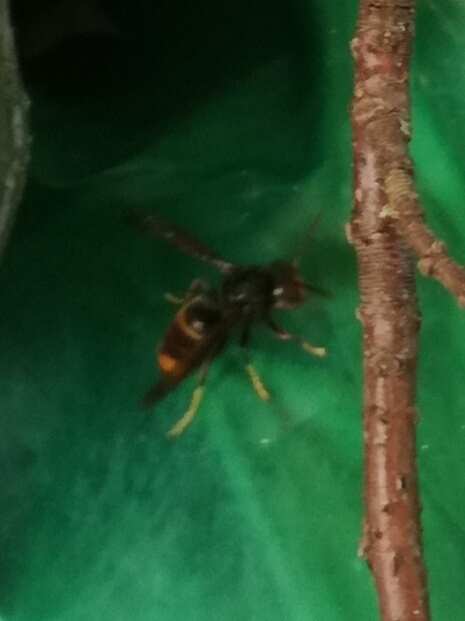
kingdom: Animalia
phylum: Arthropoda
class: Insecta
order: Hymenoptera
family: Vespidae
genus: Vespa
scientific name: Vespa velutina
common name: Asian hornet
